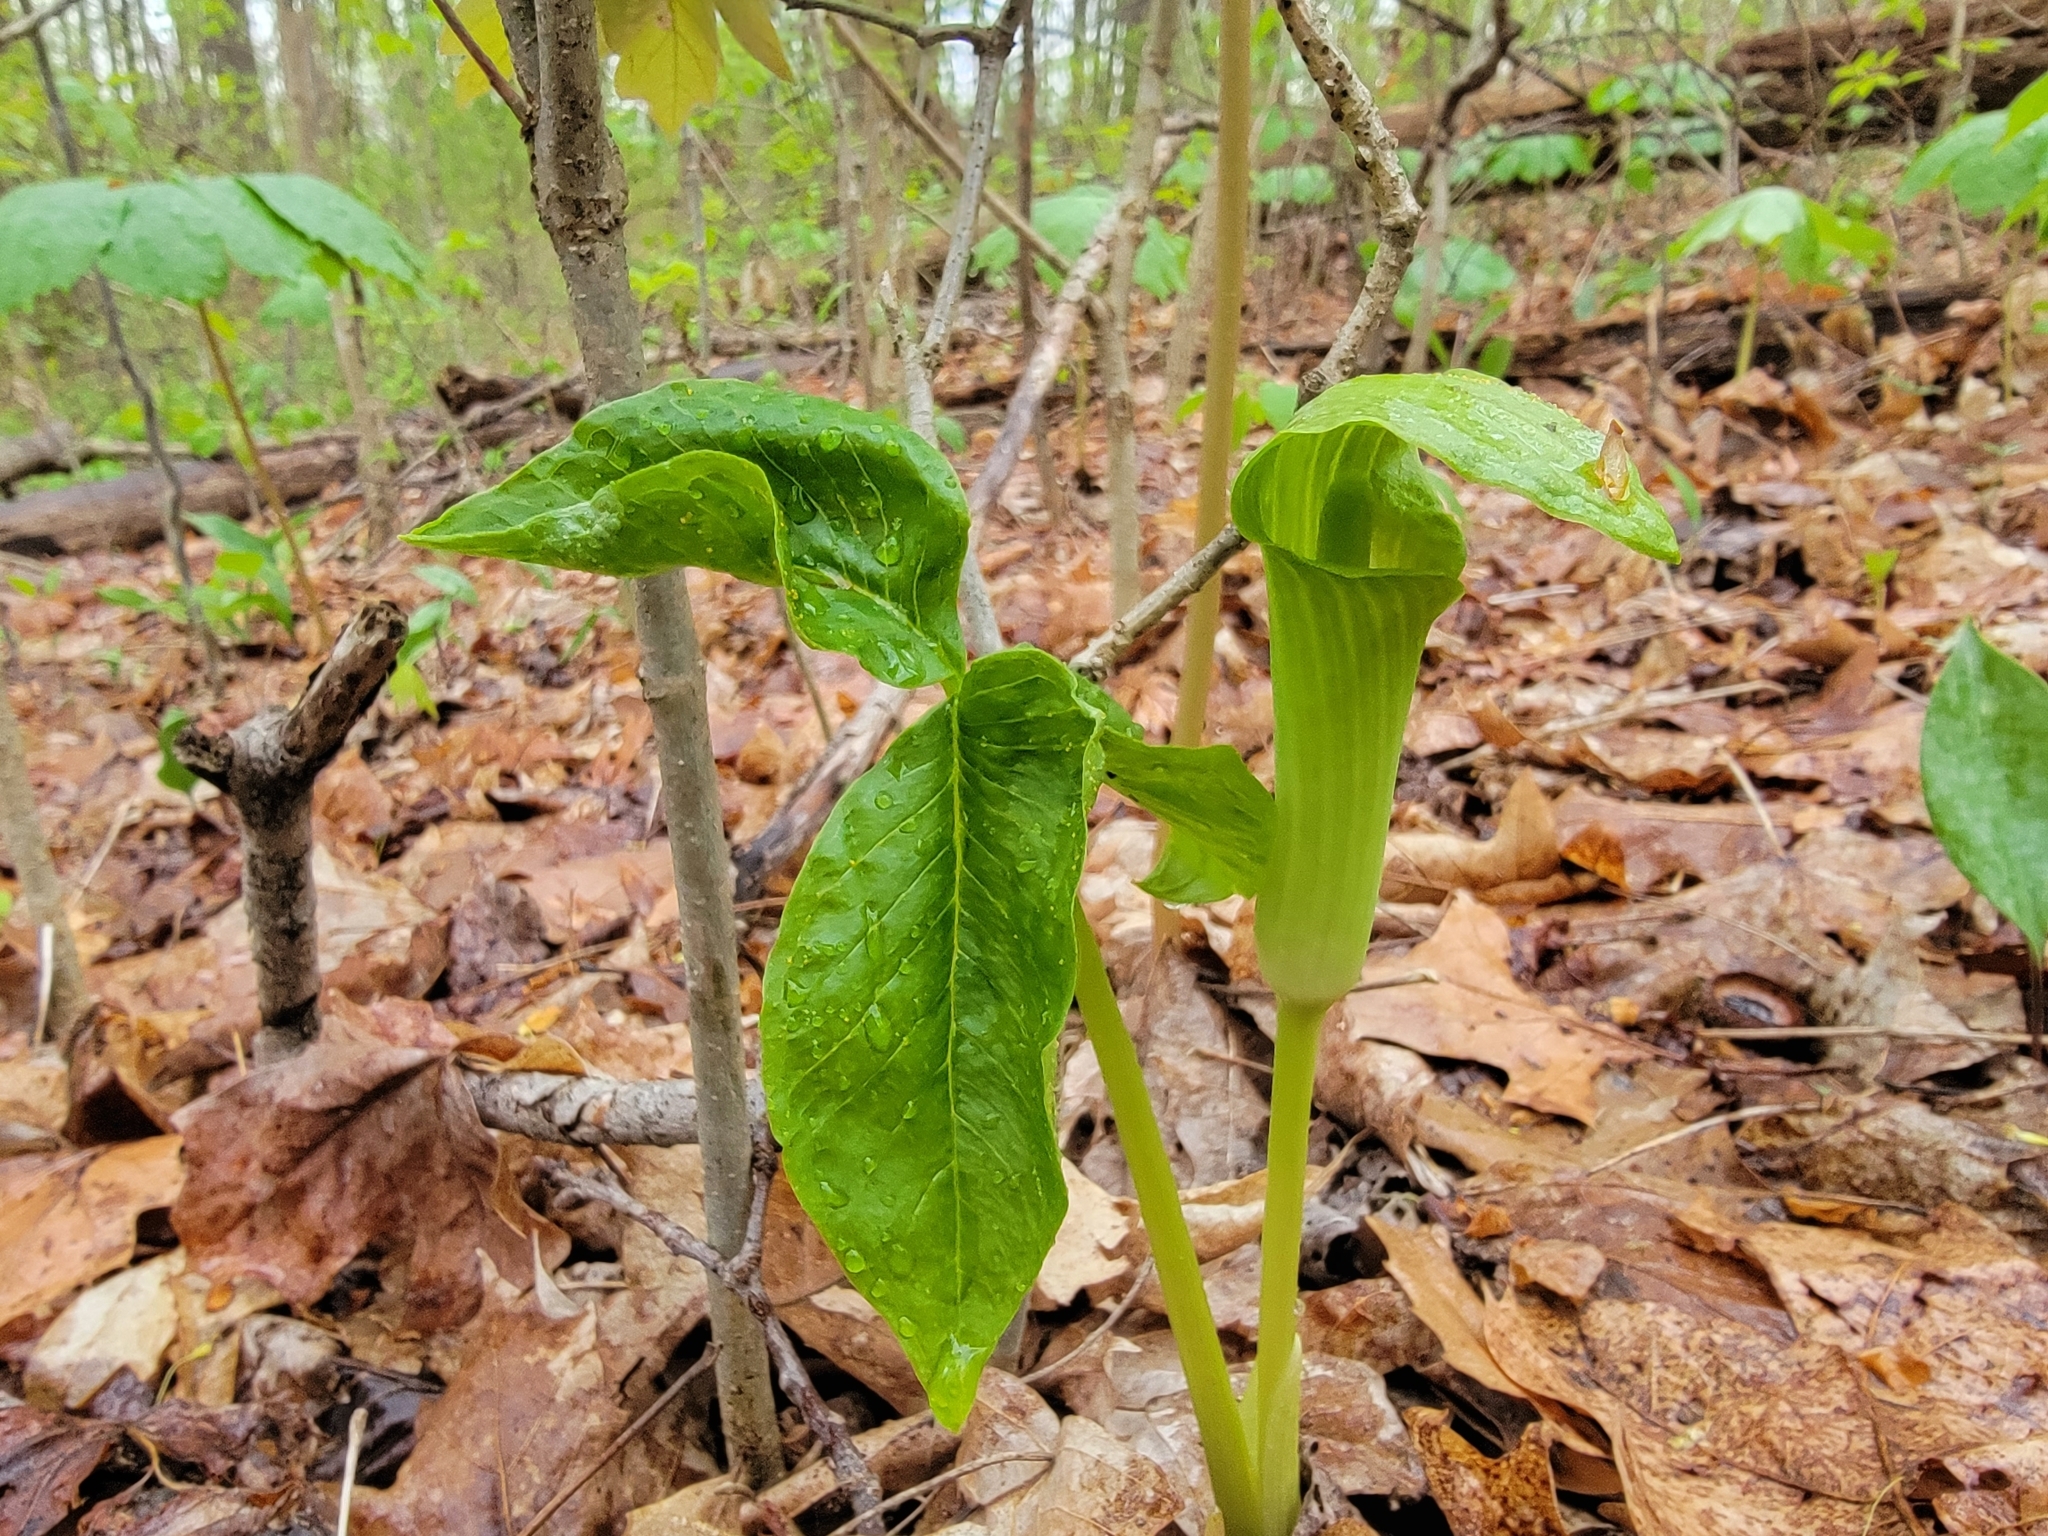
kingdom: Plantae
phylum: Tracheophyta
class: Liliopsida
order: Alismatales
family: Araceae
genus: Arisaema
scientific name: Arisaema triphyllum
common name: Jack-in-the-pulpit
